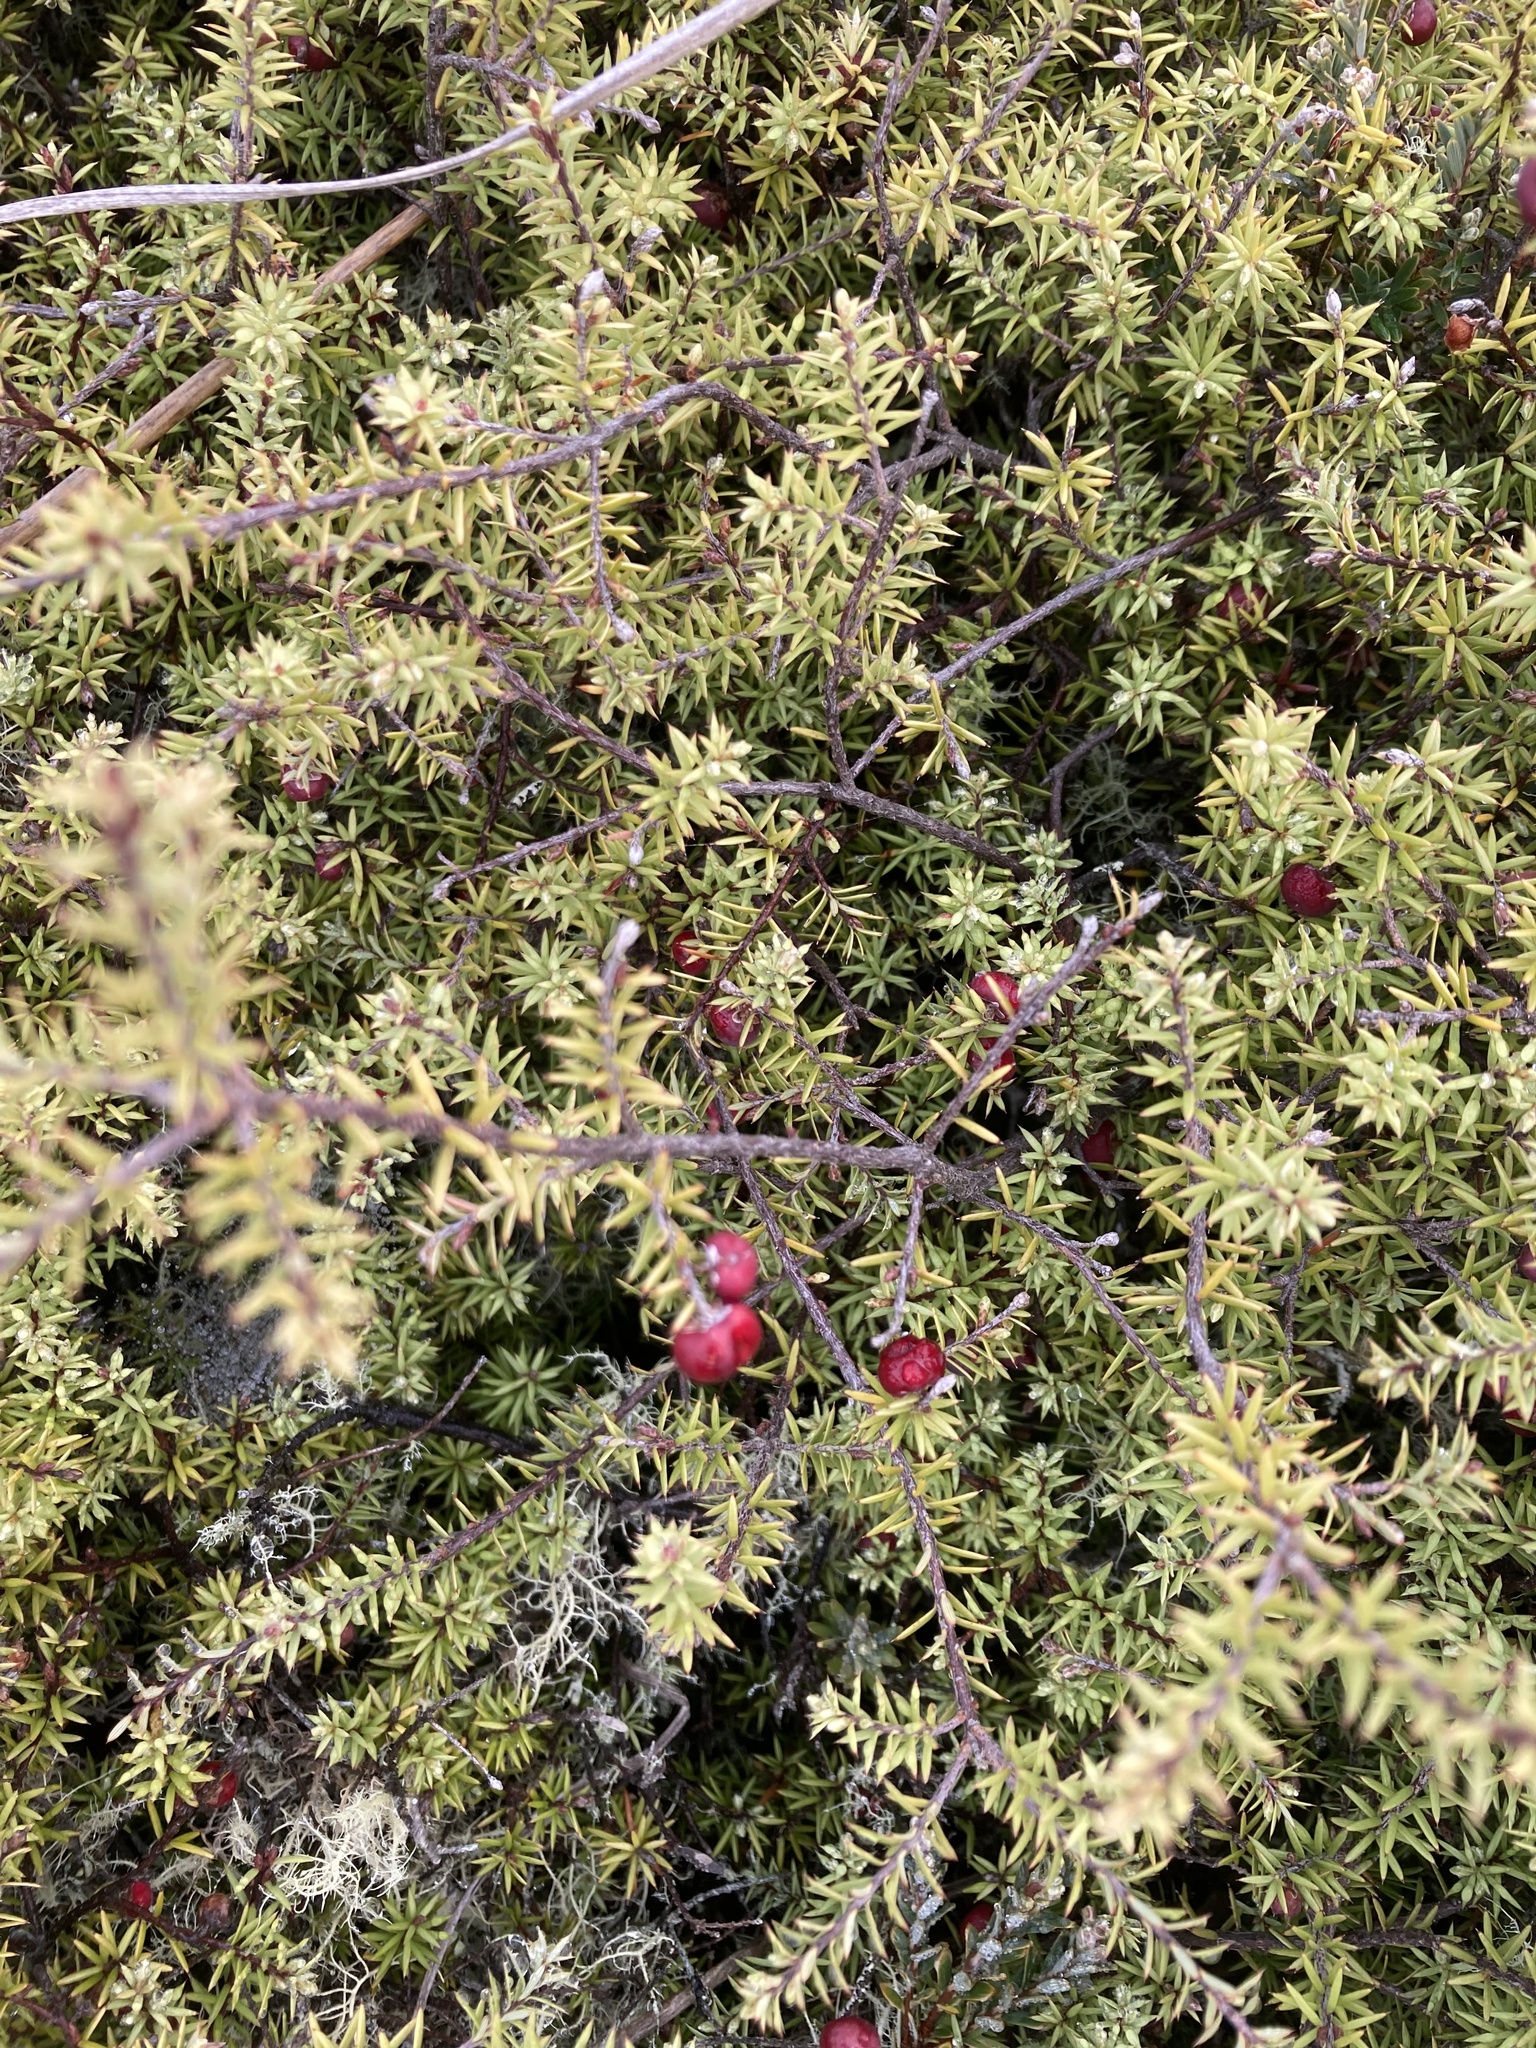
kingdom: Plantae
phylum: Tracheophyta
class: Magnoliopsida
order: Ericales
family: Ericaceae
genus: Leptecophylla
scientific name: Leptecophylla juniperina
